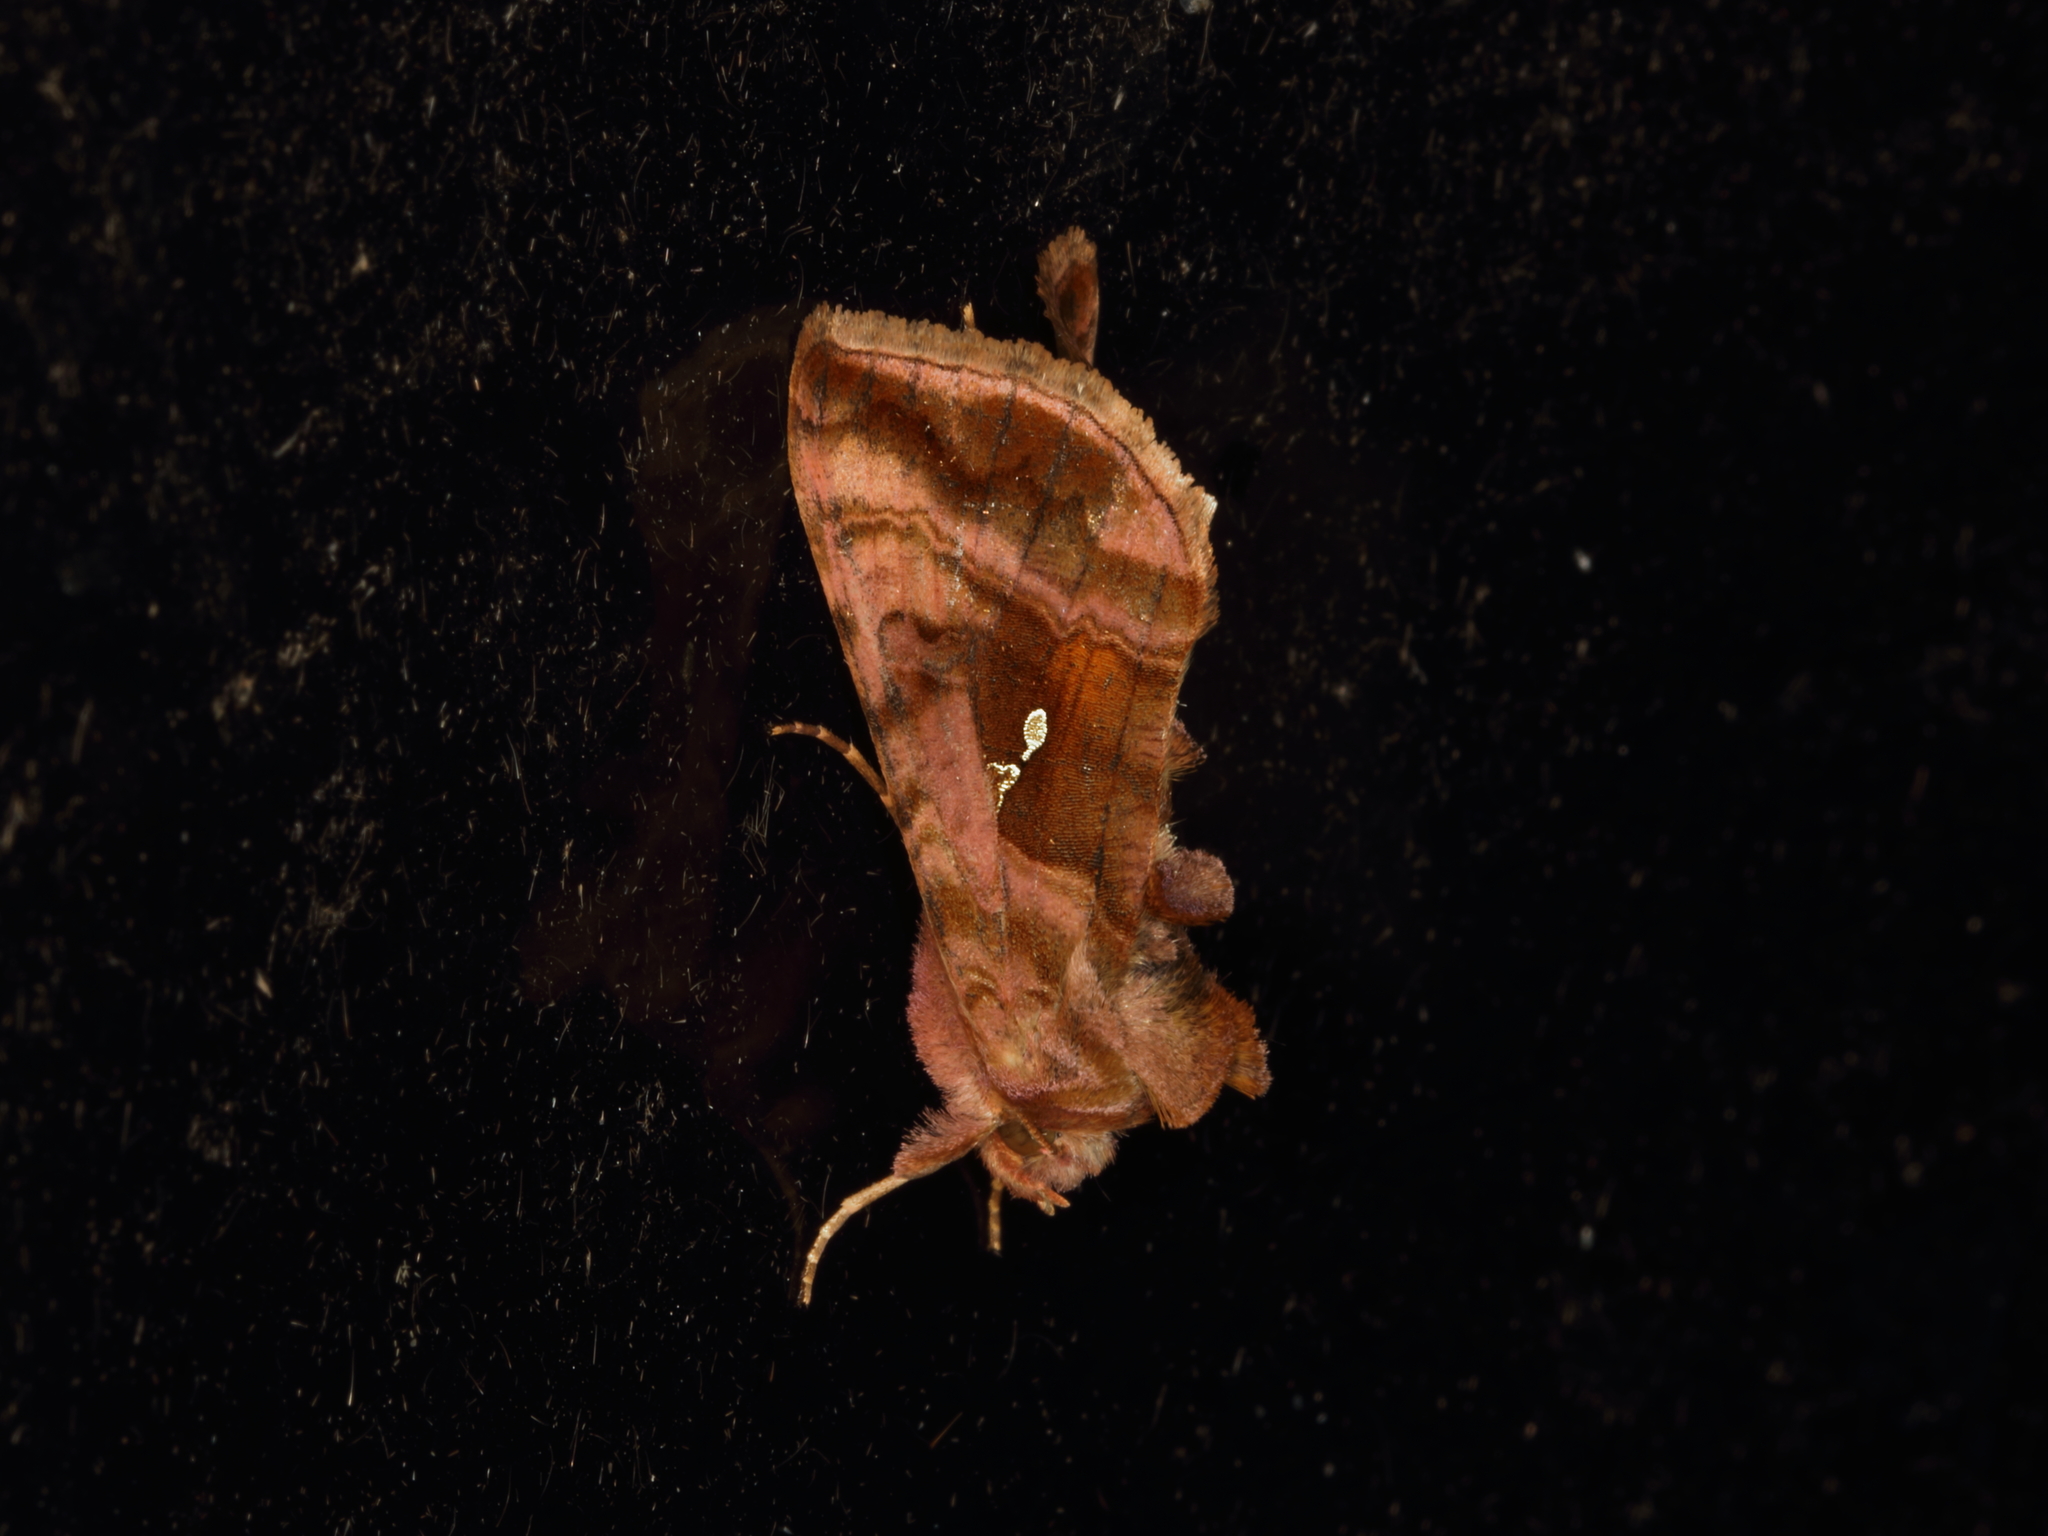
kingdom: Animalia
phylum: Arthropoda
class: Insecta
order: Lepidoptera
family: Noctuidae
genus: Autographa
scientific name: Autographa jota
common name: Plain golden y
